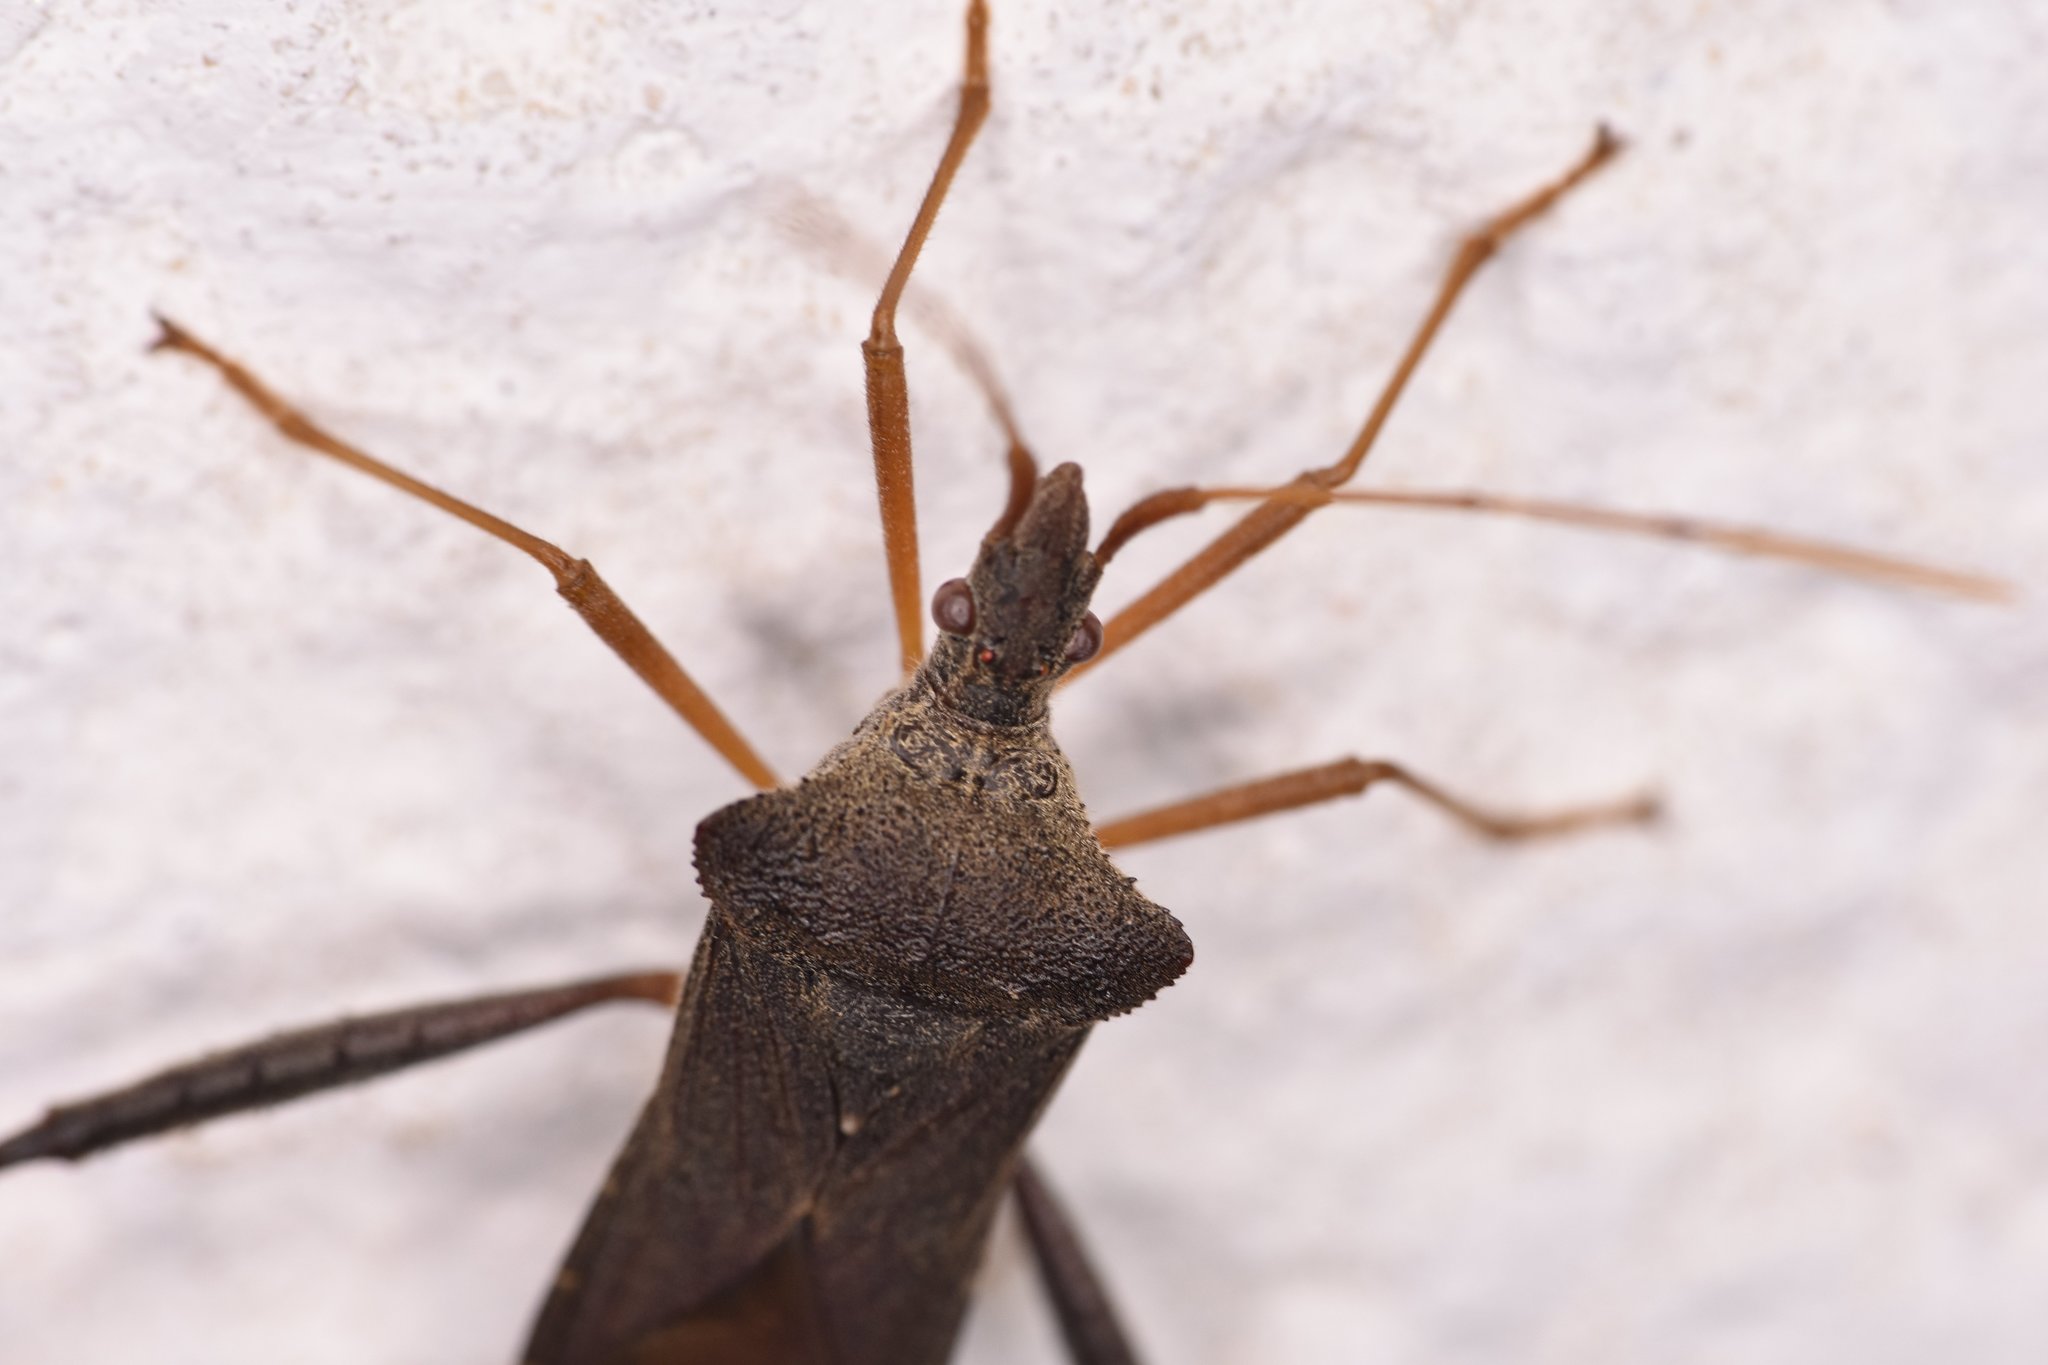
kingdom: Animalia
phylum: Arthropoda
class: Insecta
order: Hemiptera
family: Coreidae
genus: Leptoglossus
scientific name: Leptoglossus fulvicornis
